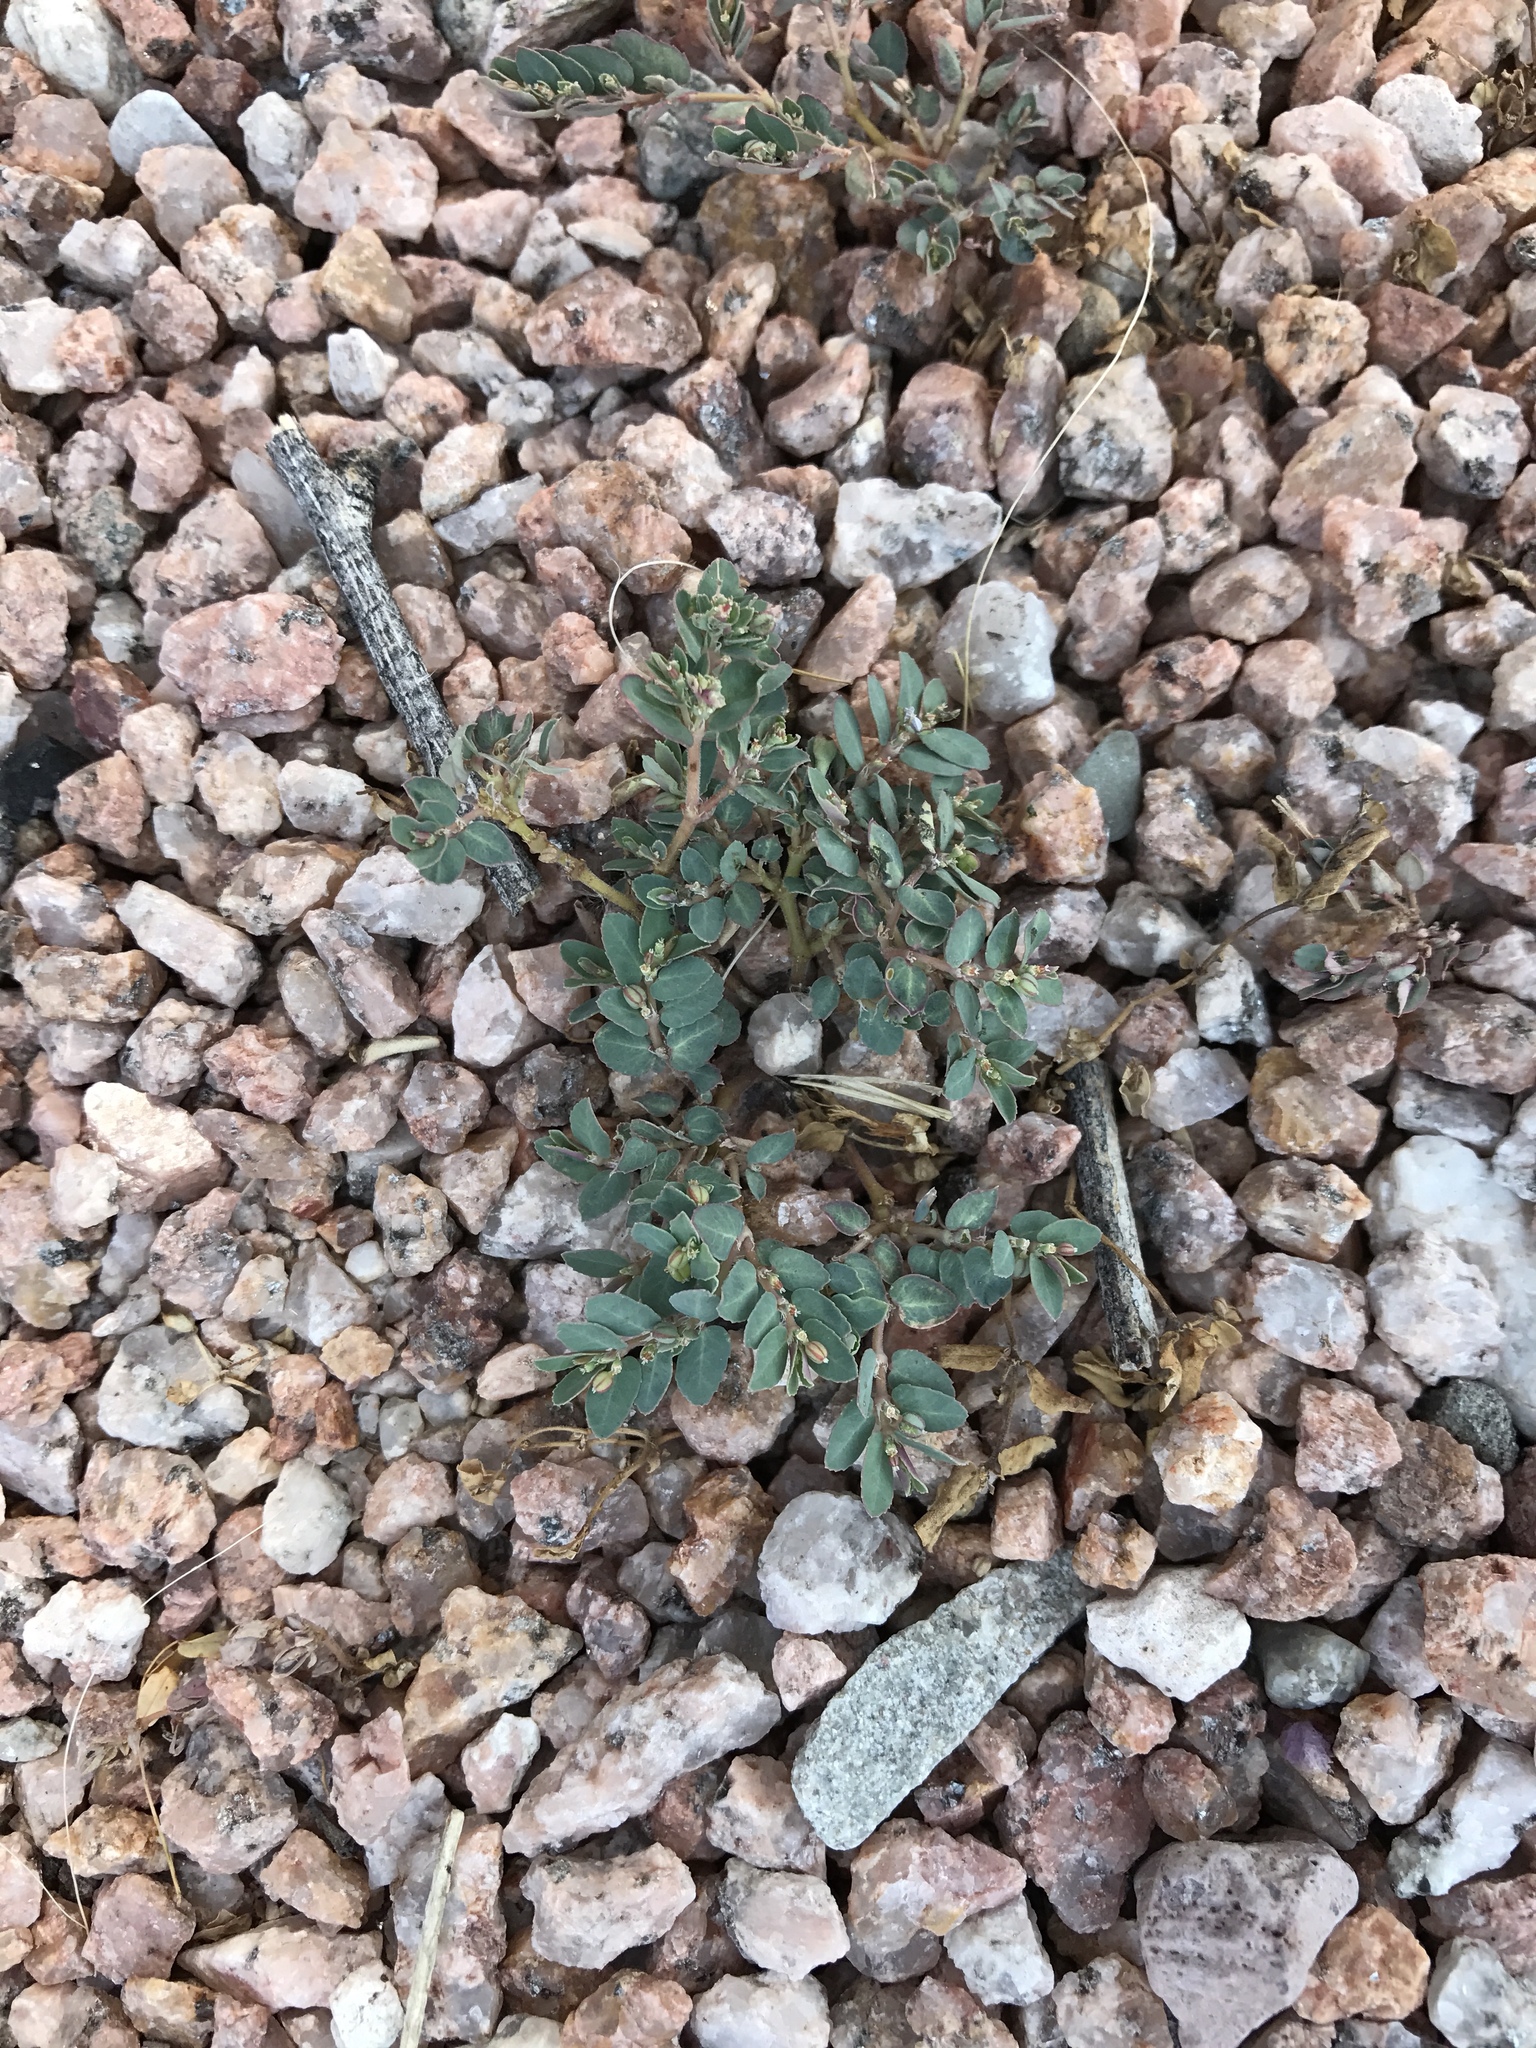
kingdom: Plantae
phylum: Tracheophyta
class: Magnoliopsida
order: Malpighiales
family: Euphorbiaceae
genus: Euphorbia
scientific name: Euphorbia abramsiana
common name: Abram's spurge
